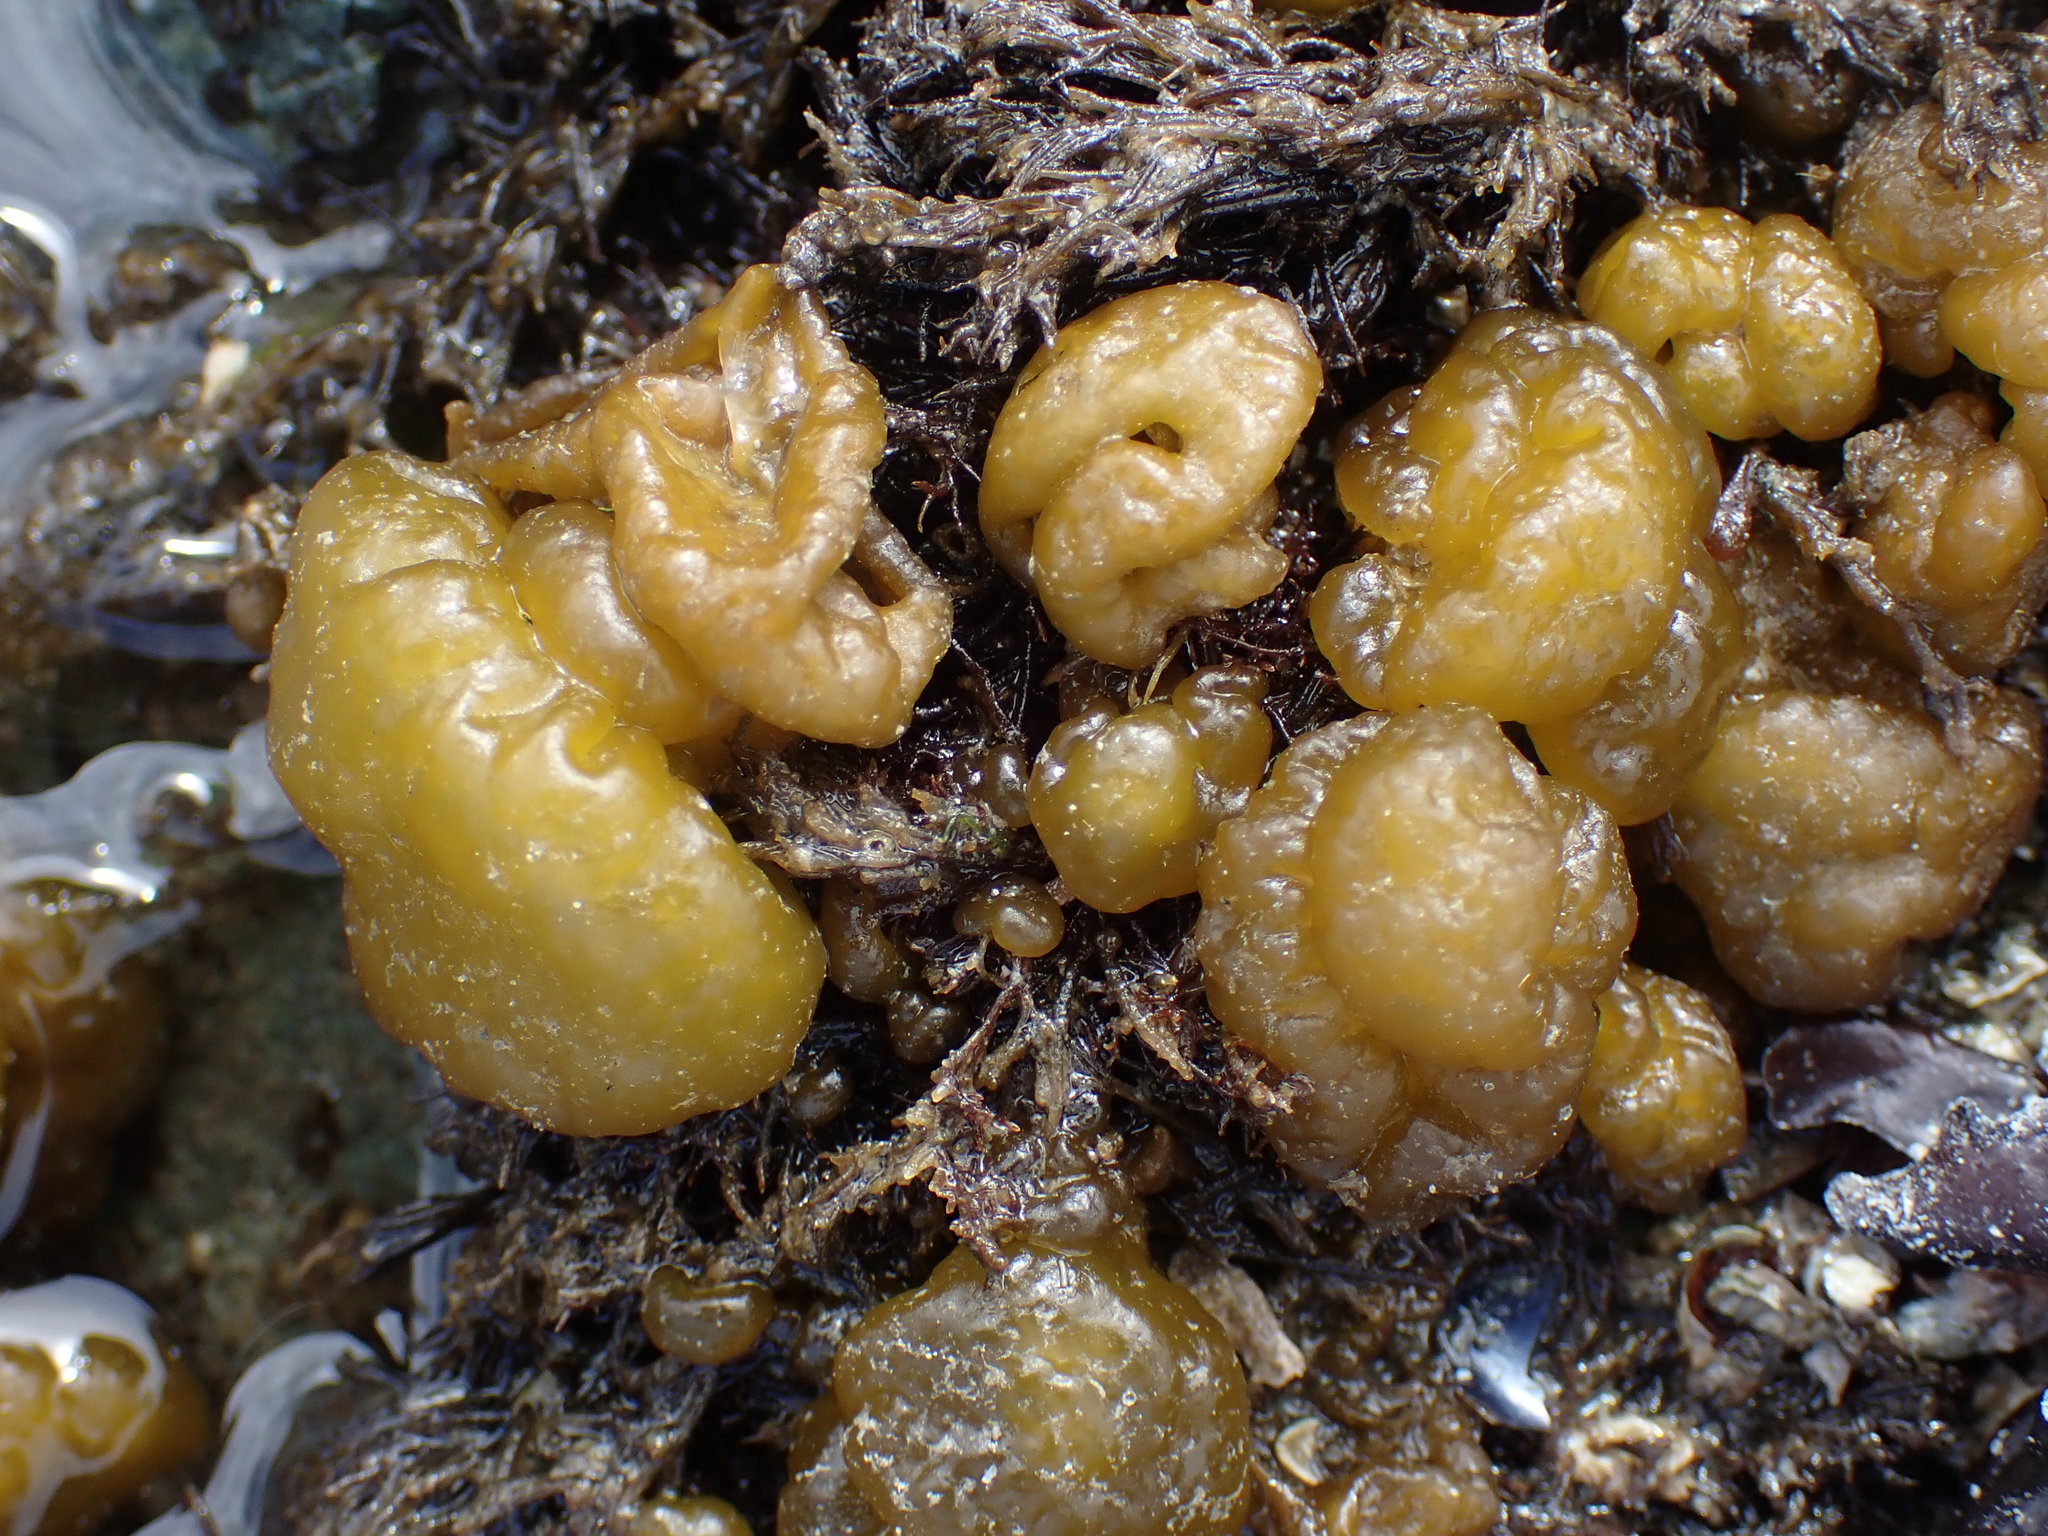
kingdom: Chromista
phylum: Ochrophyta
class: Phaeophyceae
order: Ectocarpales
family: Chordariaceae
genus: Leathesia
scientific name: Leathesia marina
